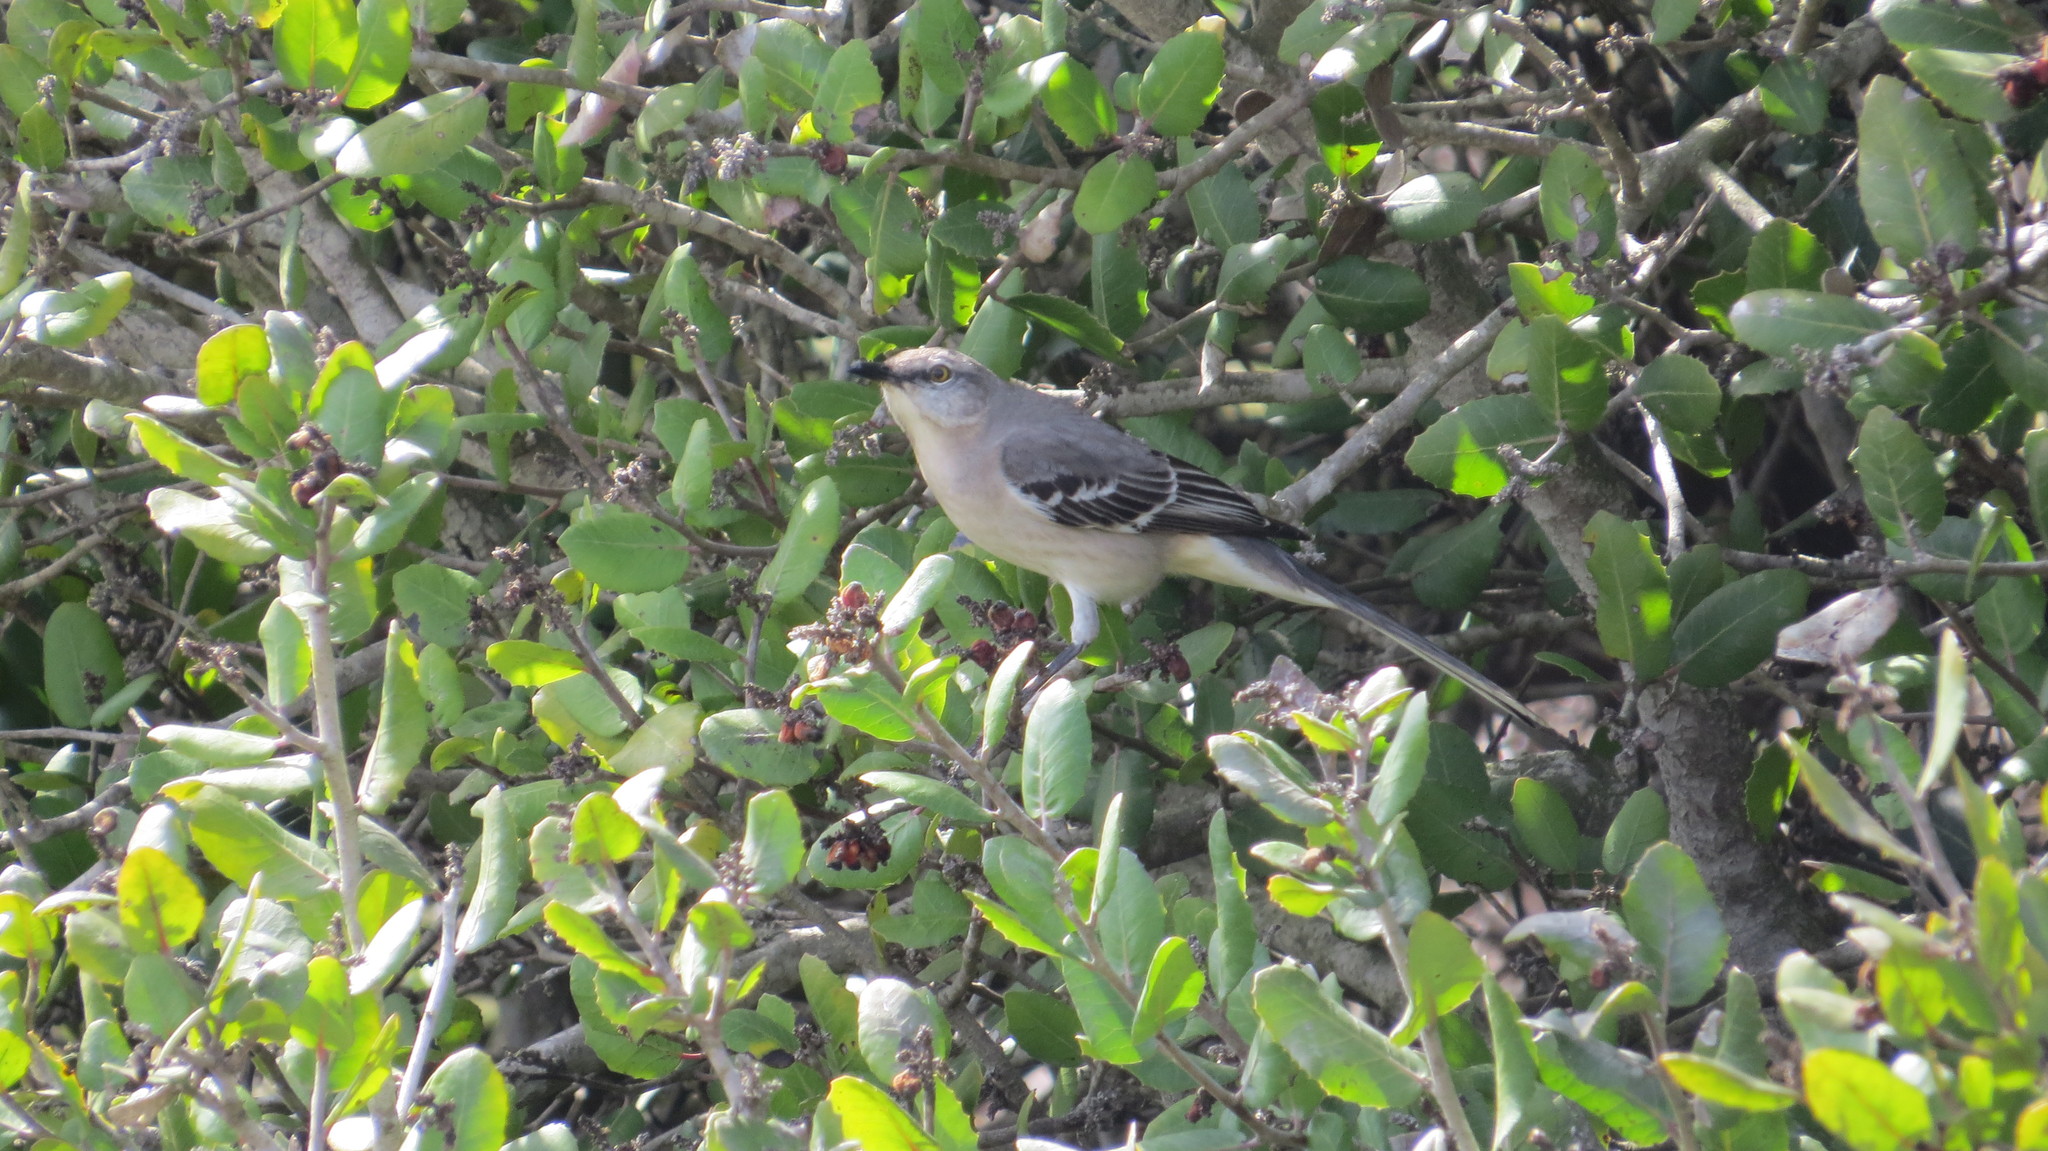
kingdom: Animalia
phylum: Chordata
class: Aves
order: Passeriformes
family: Mimidae
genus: Mimus
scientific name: Mimus polyglottos
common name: Northern mockingbird
